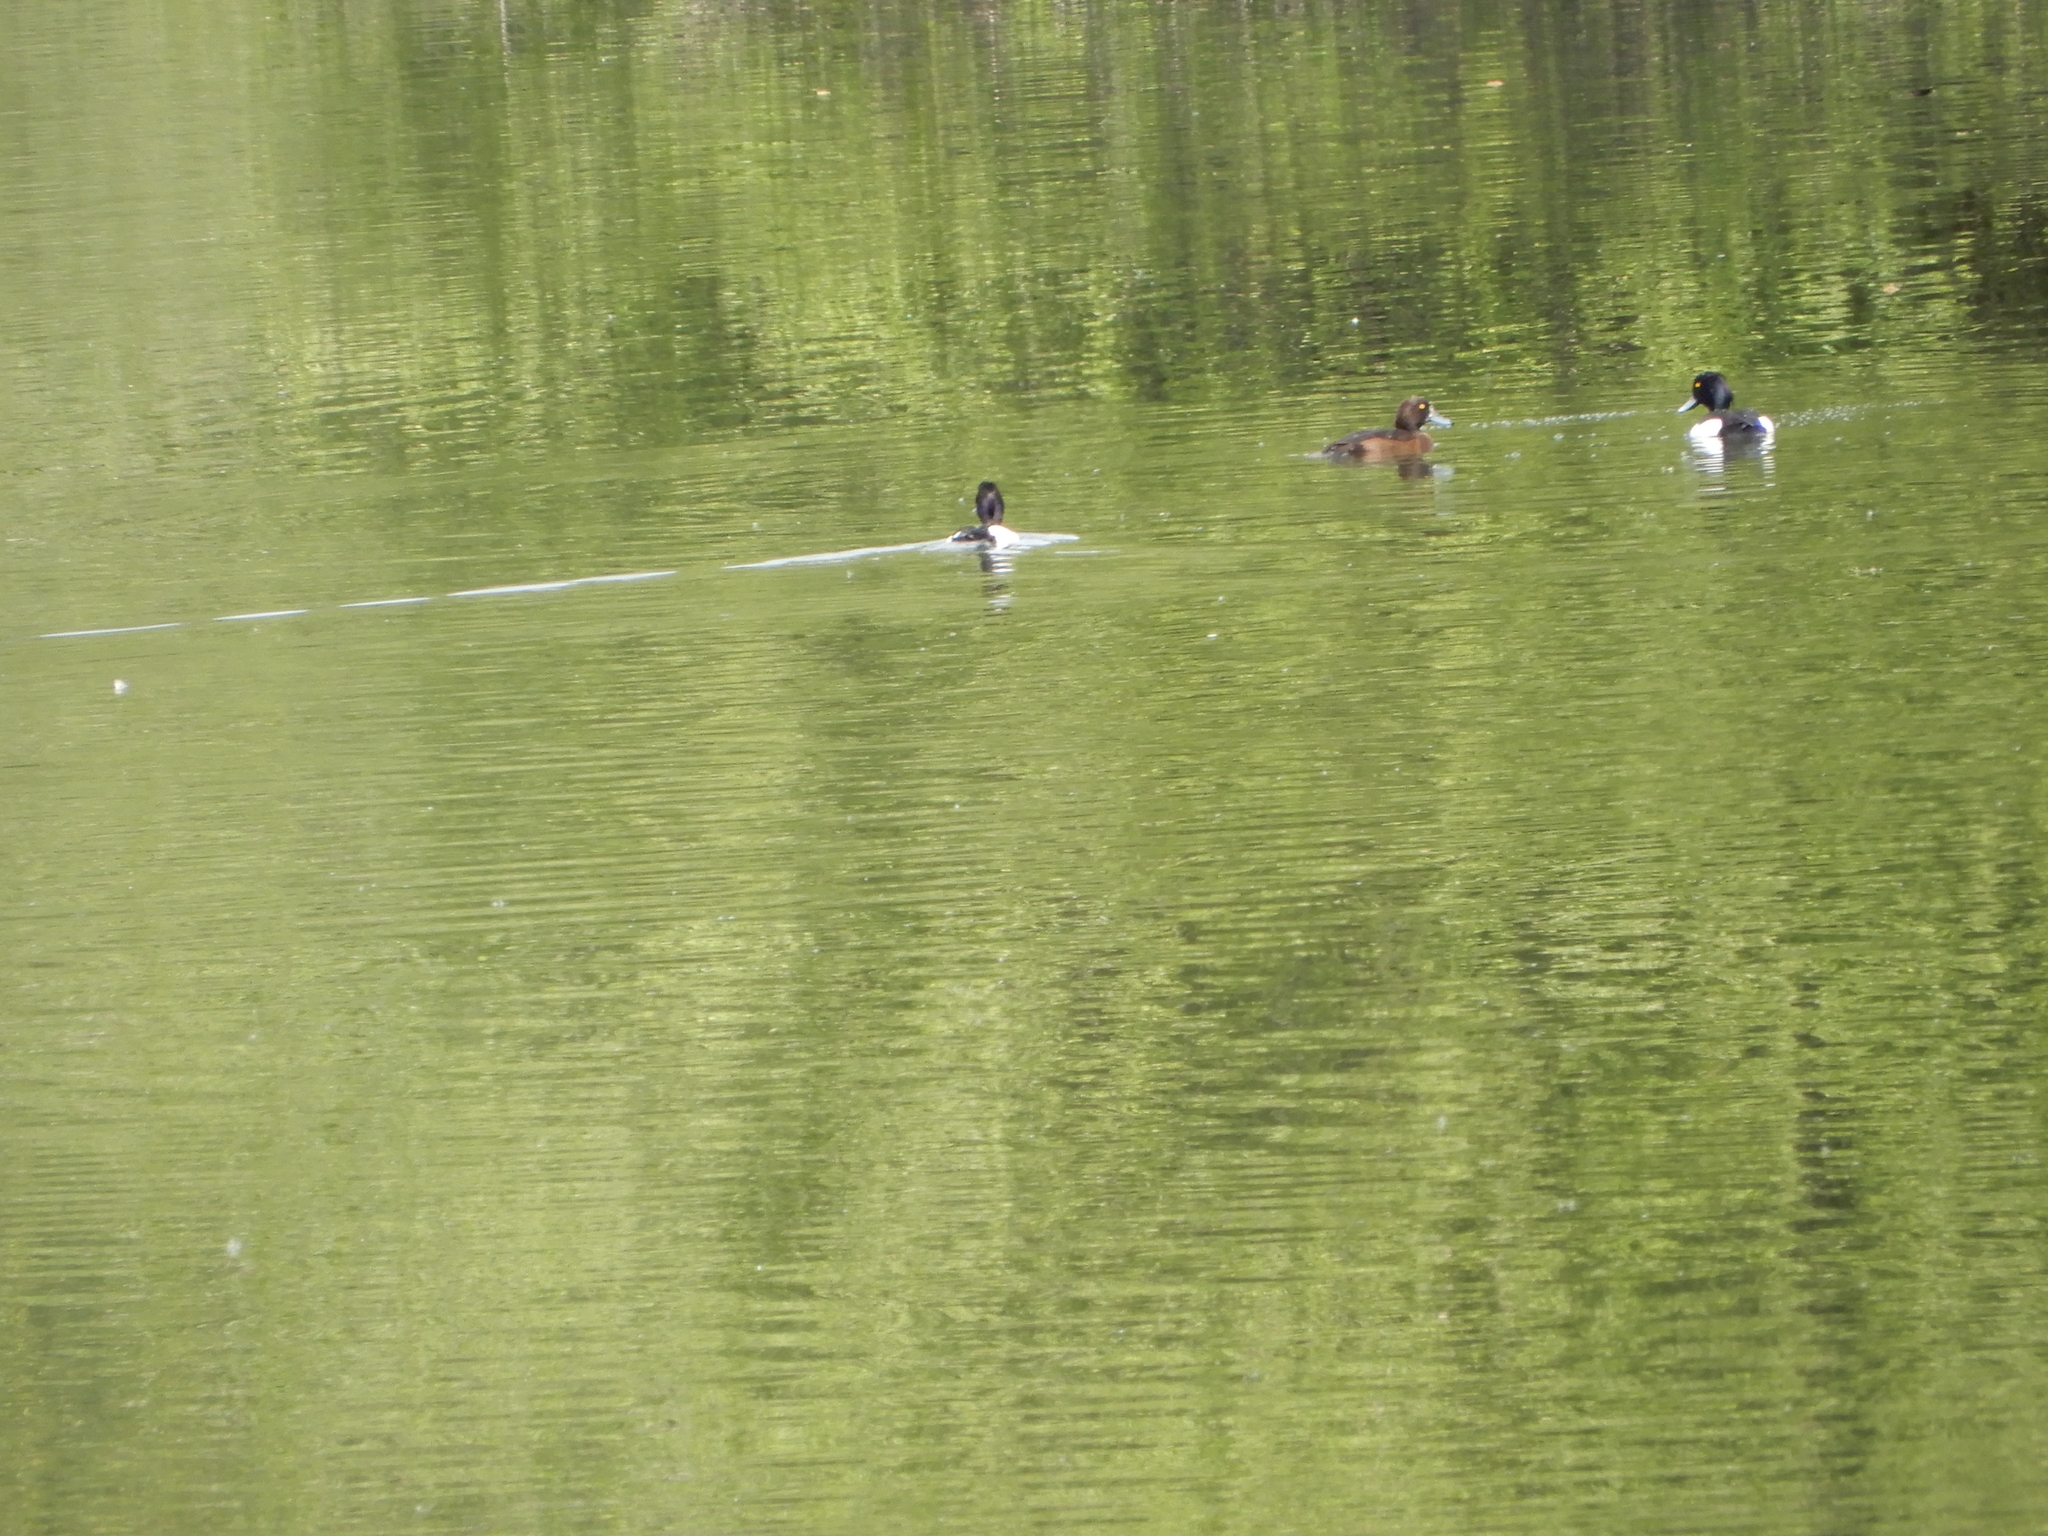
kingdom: Animalia
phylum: Chordata
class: Aves
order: Anseriformes
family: Anatidae
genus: Aythya
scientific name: Aythya fuligula
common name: Tufted duck
